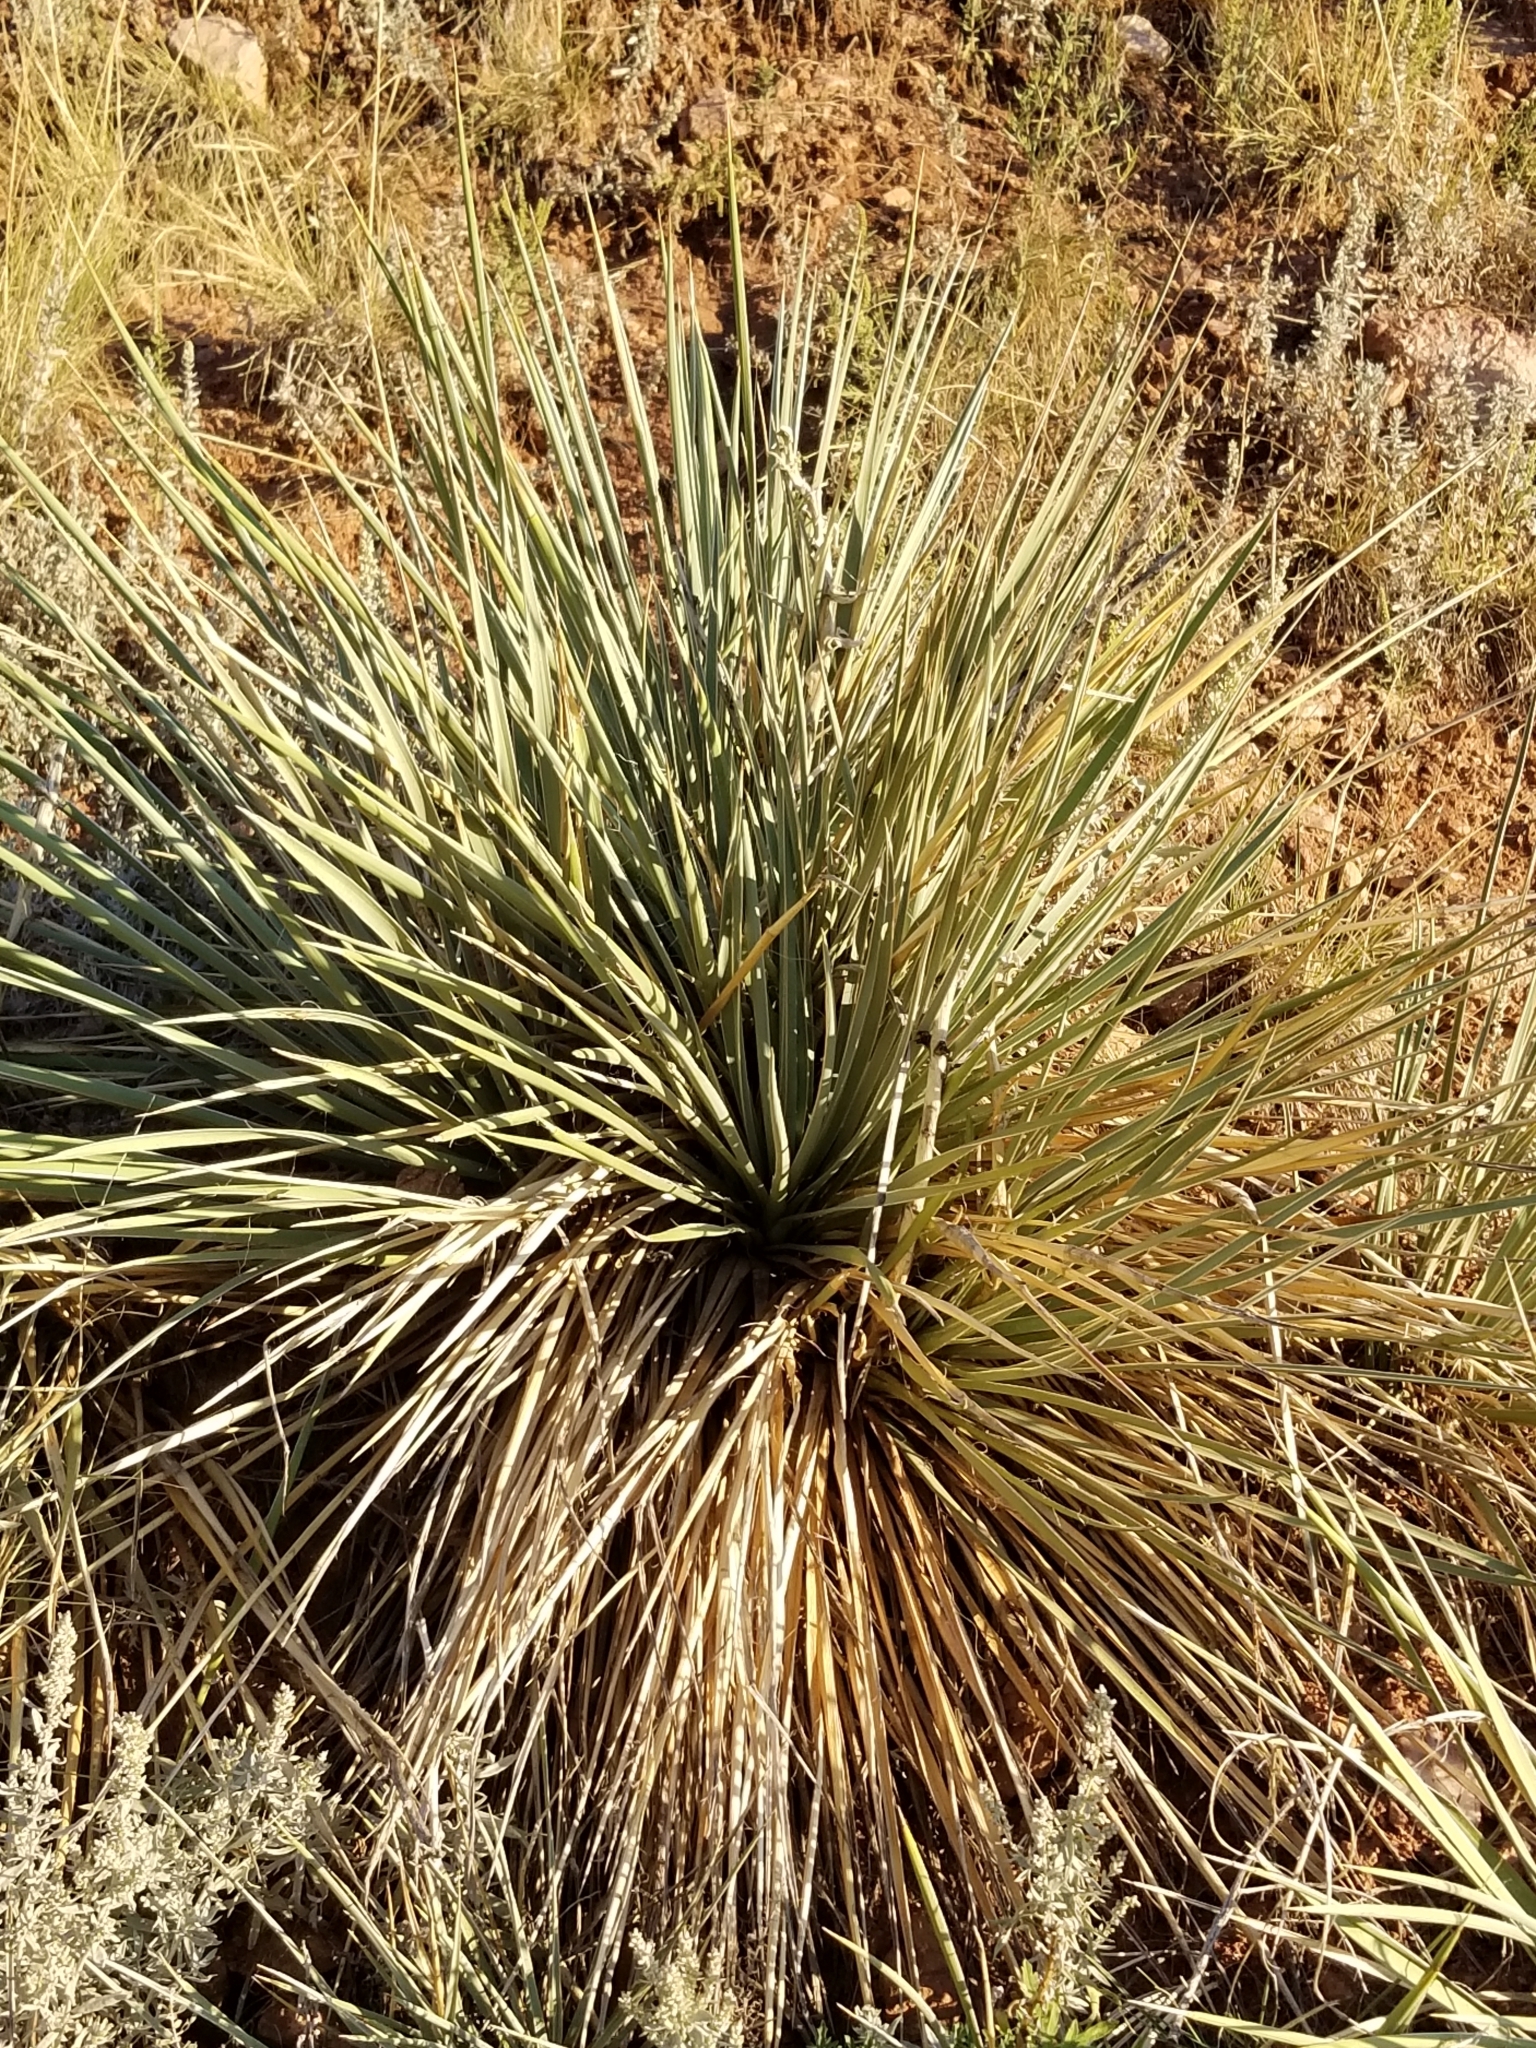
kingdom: Plantae
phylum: Tracheophyta
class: Liliopsida
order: Asparagales
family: Asparagaceae
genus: Yucca
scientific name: Yucca glauca
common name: Great plains yucca
